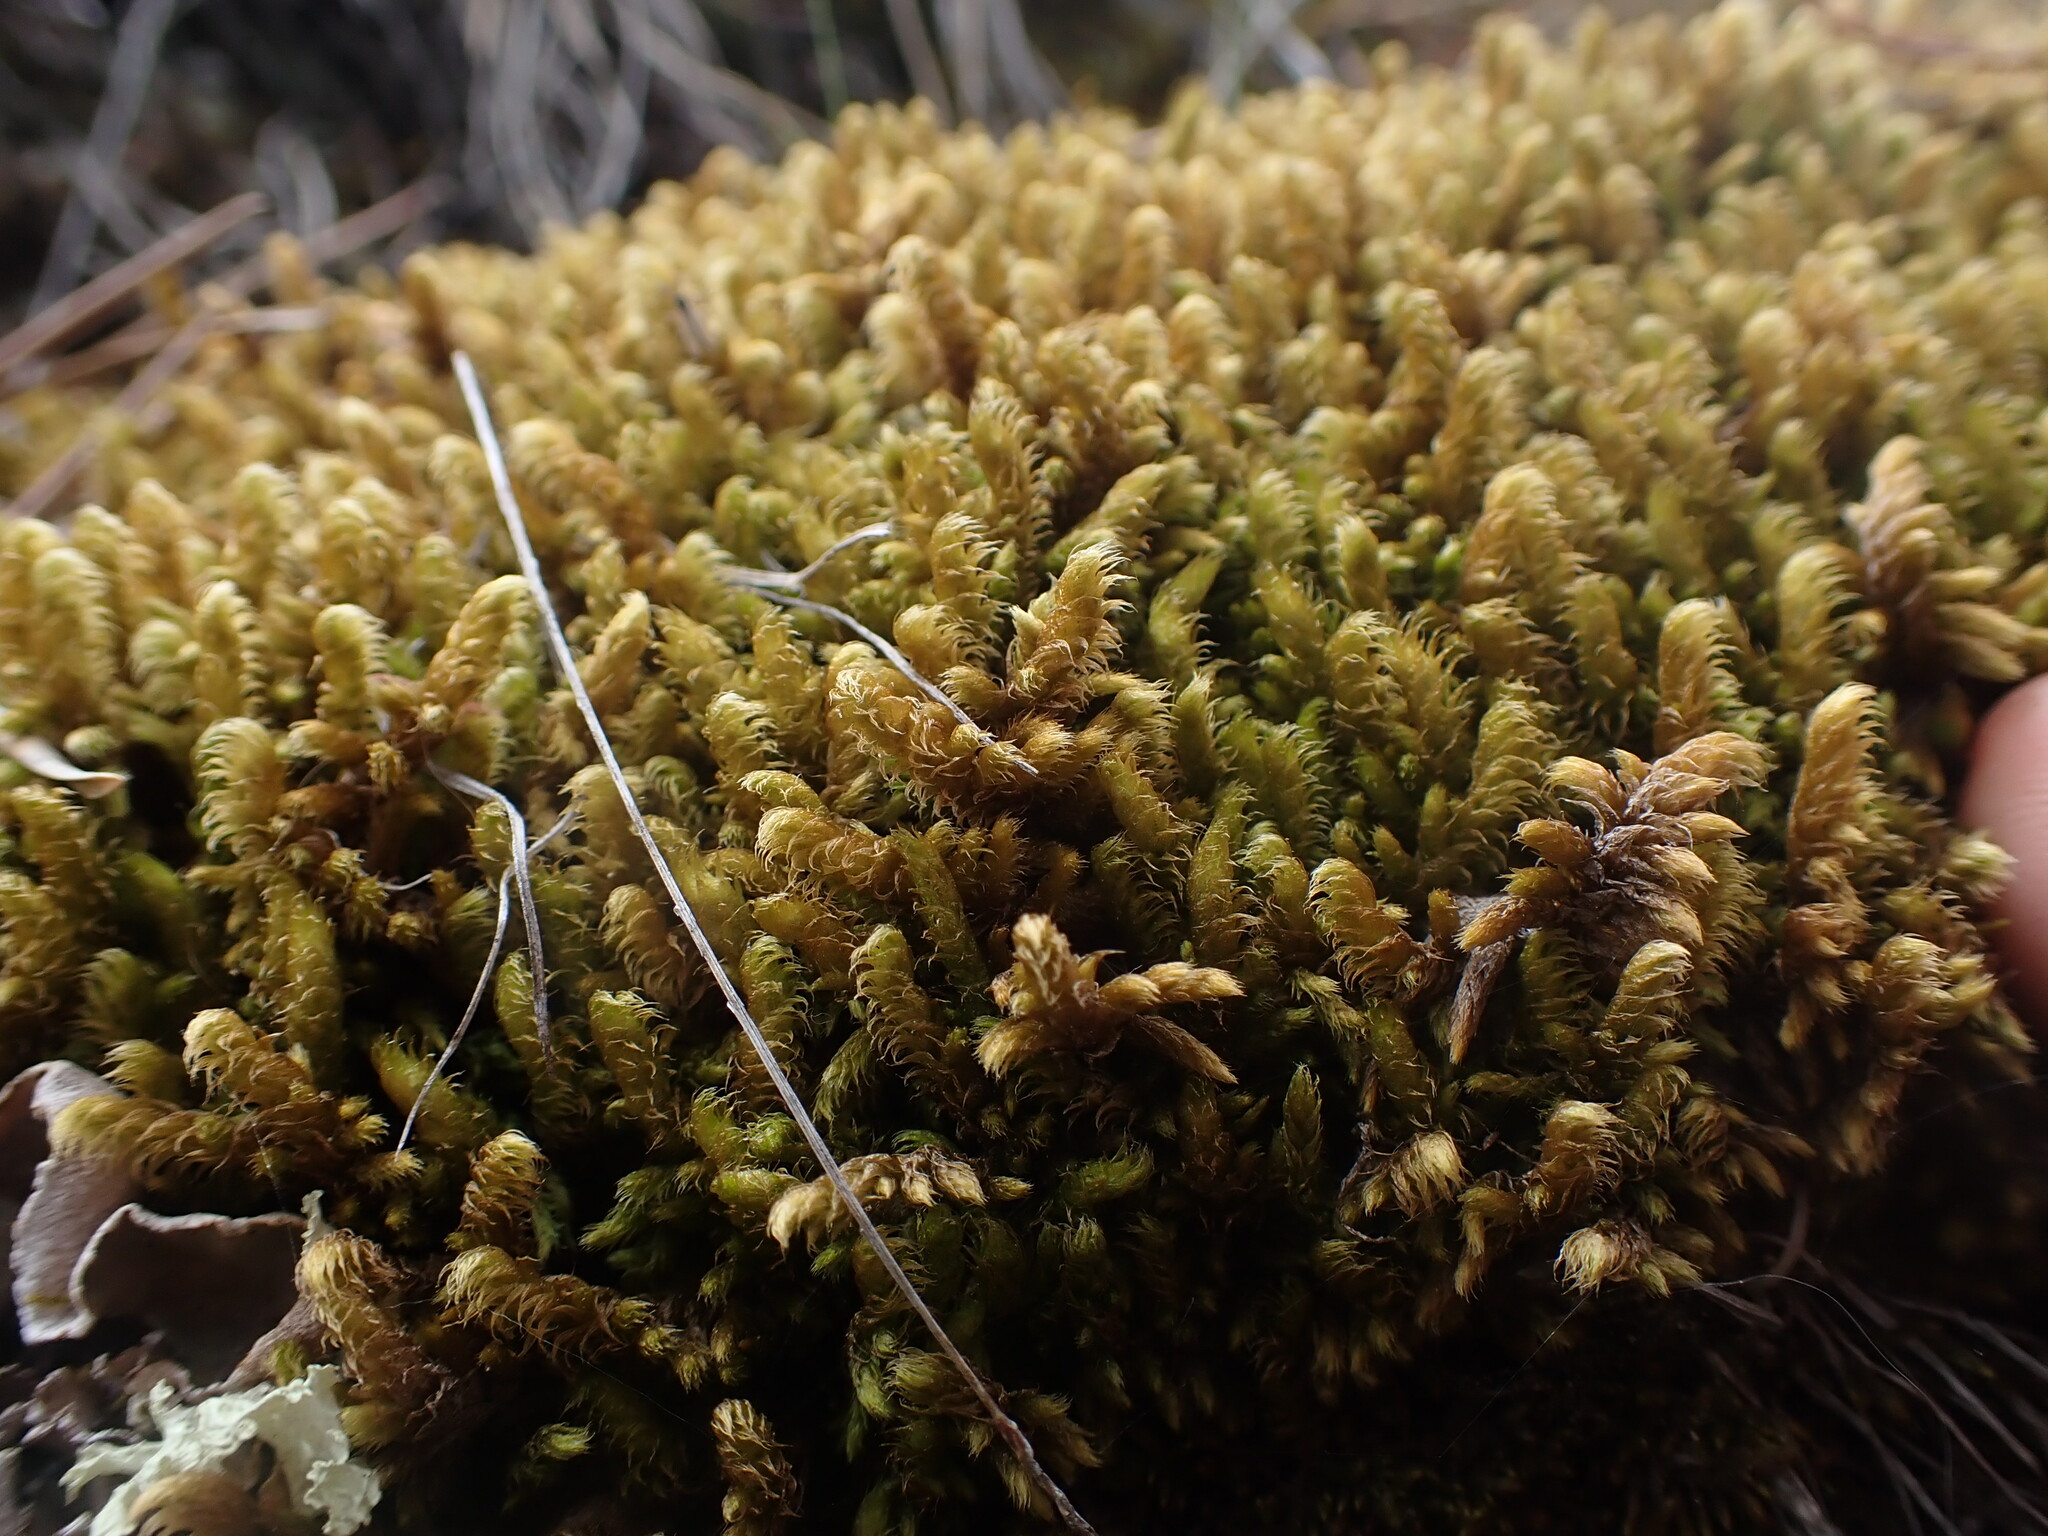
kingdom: Plantae
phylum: Bryophyta
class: Bryopsida
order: Hypnales
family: Rhytidiaceae
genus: Rhytidium
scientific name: Rhytidium rugosum
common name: Wrinkle-leaved moss
